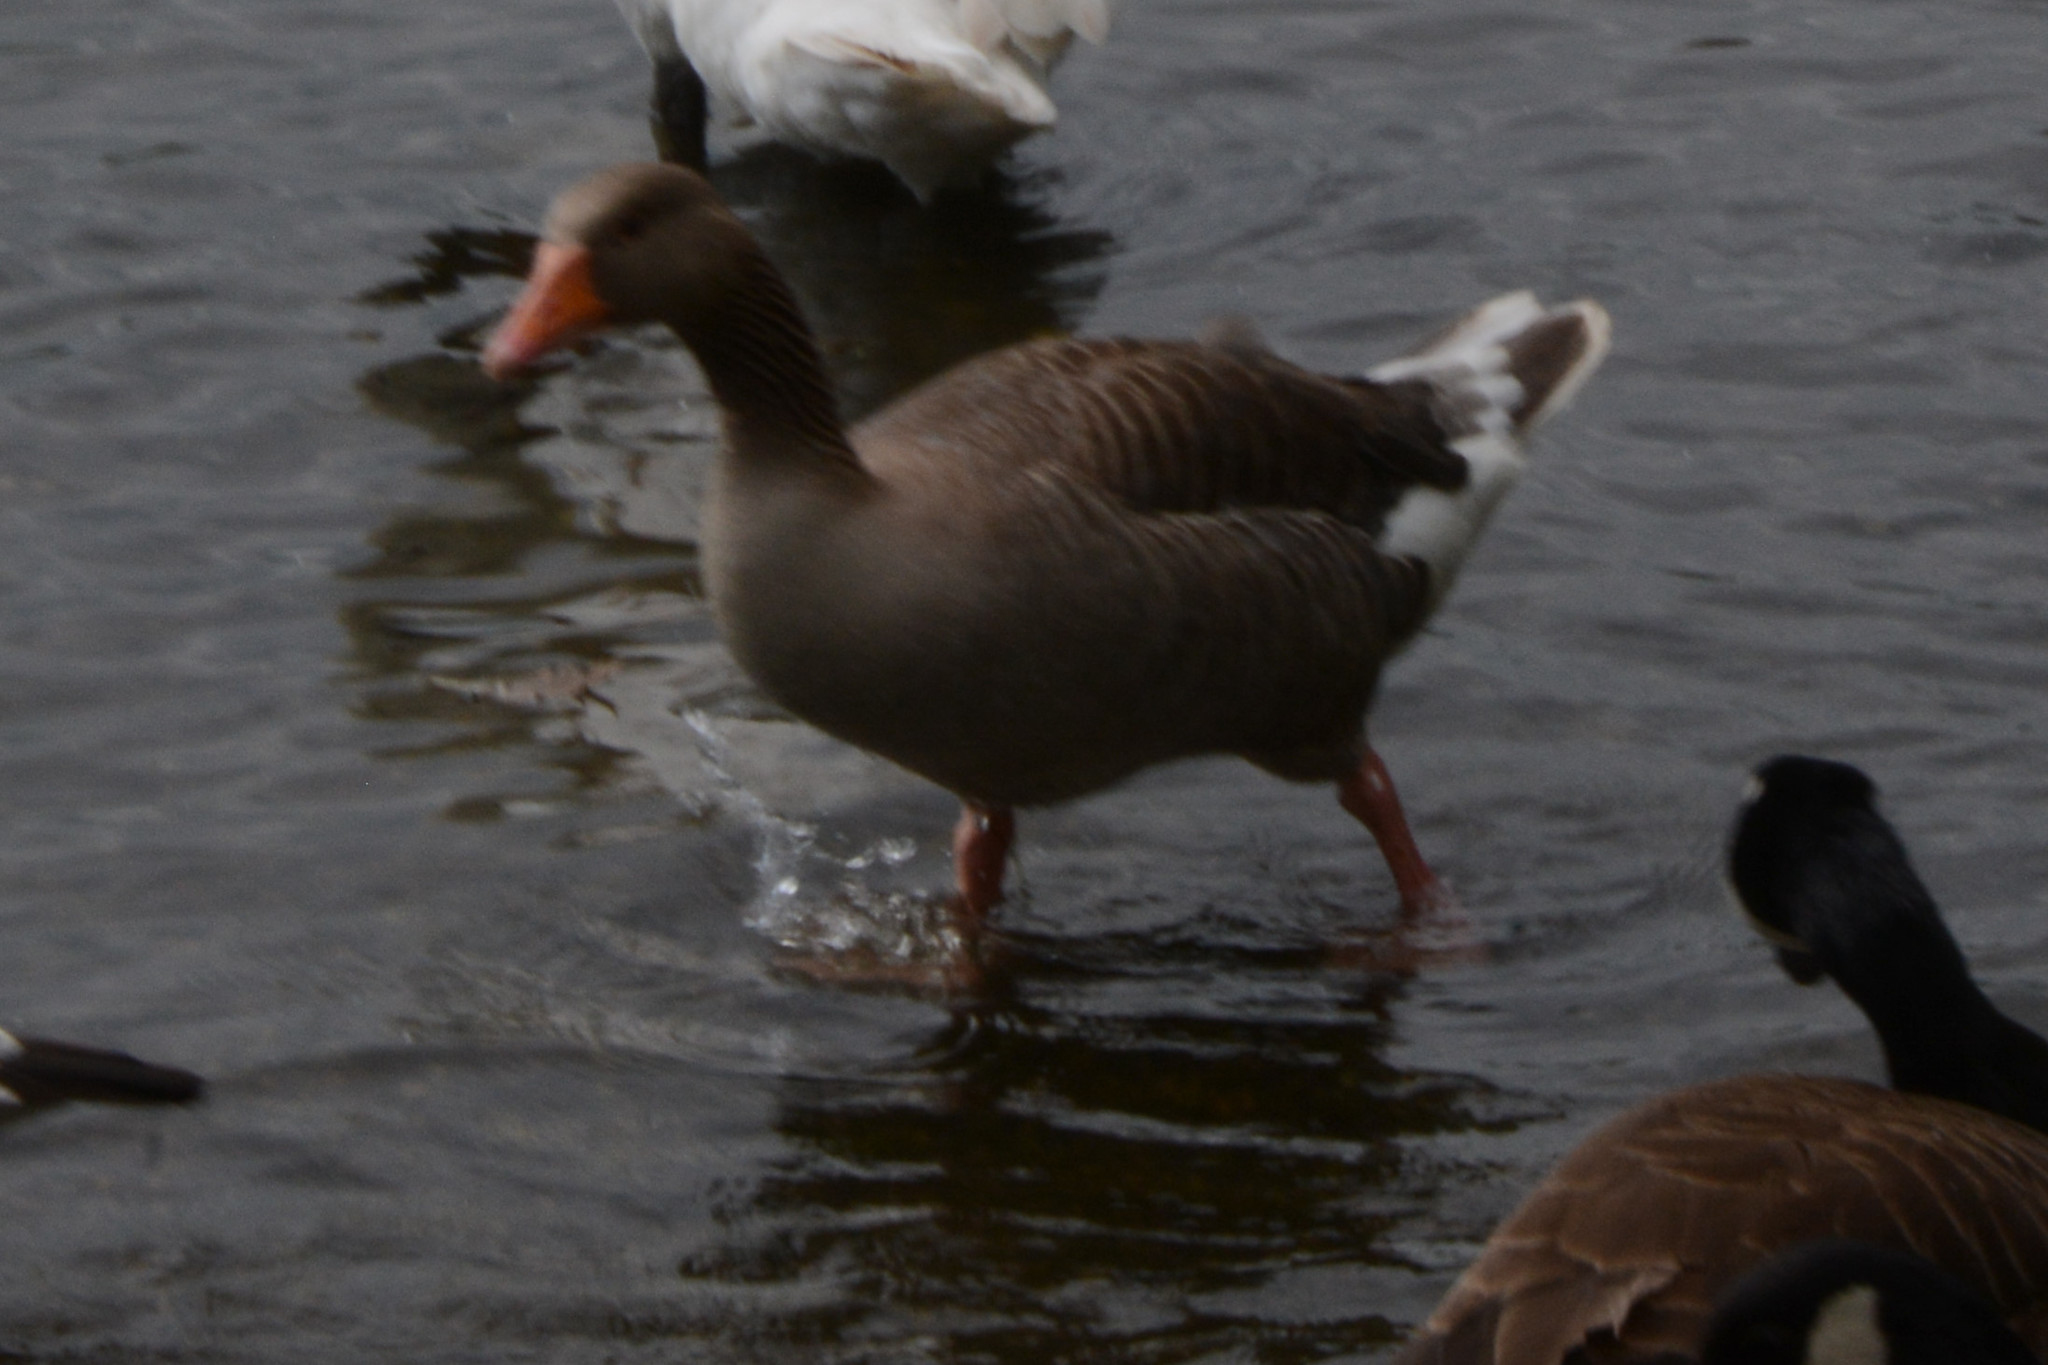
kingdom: Animalia
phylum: Chordata
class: Aves
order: Anseriformes
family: Anatidae
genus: Anser
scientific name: Anser anser
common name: Greylag goose
